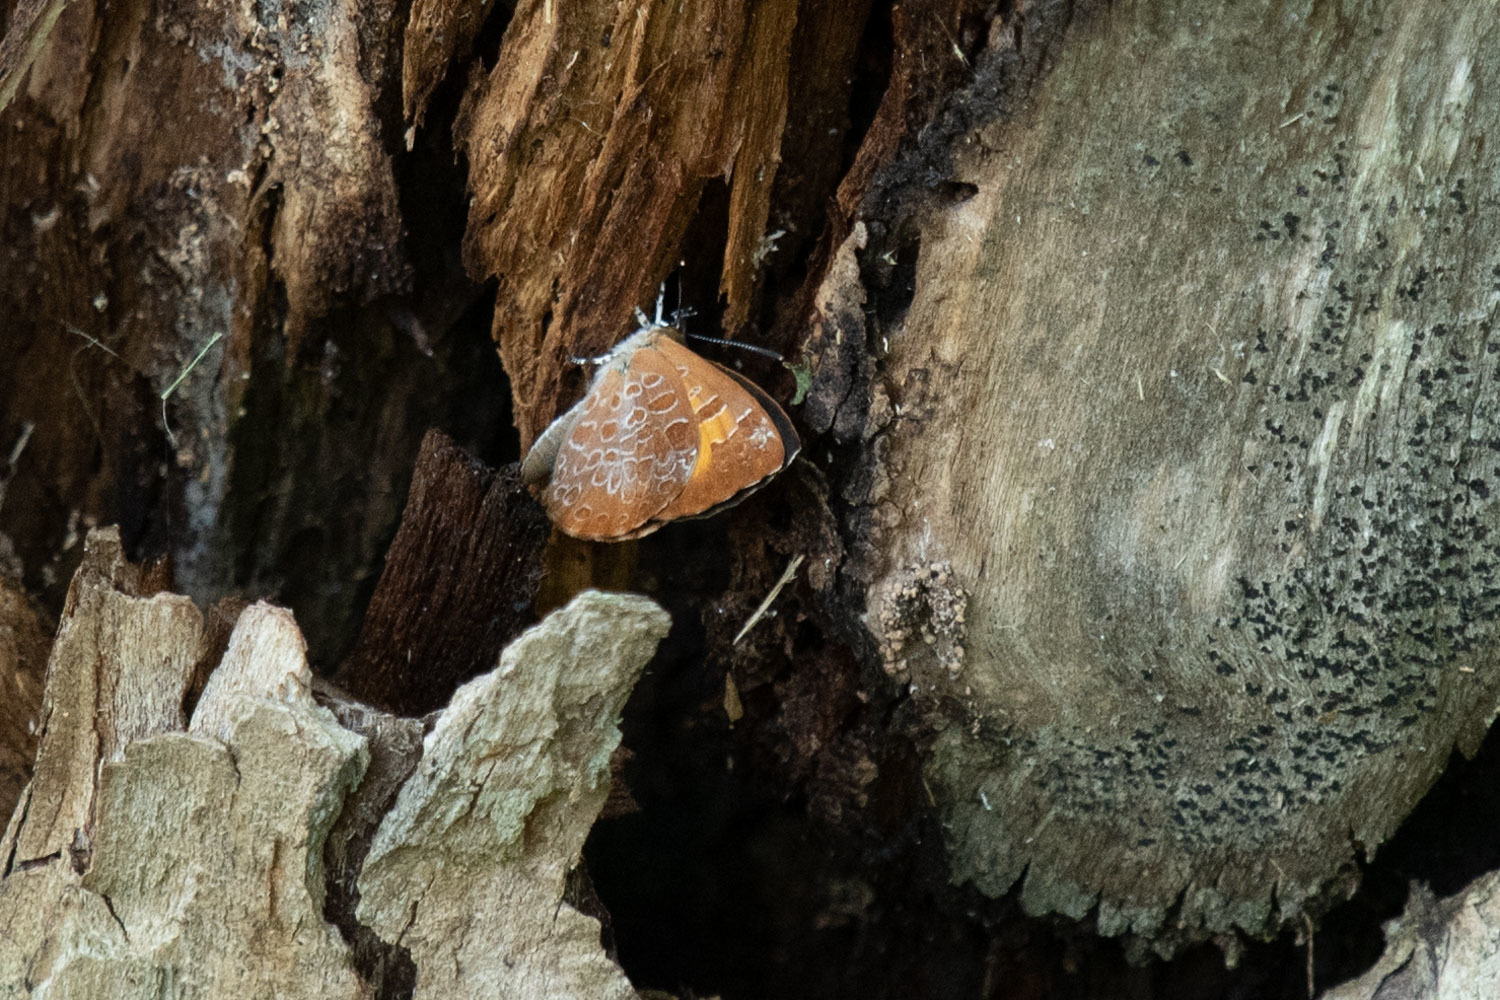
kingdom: Animalia
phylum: Arthropoda
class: Insecta
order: Lepidoptera
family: Lycaenidae
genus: Feniseca
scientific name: Feniseca tarquinius
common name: Harvester
